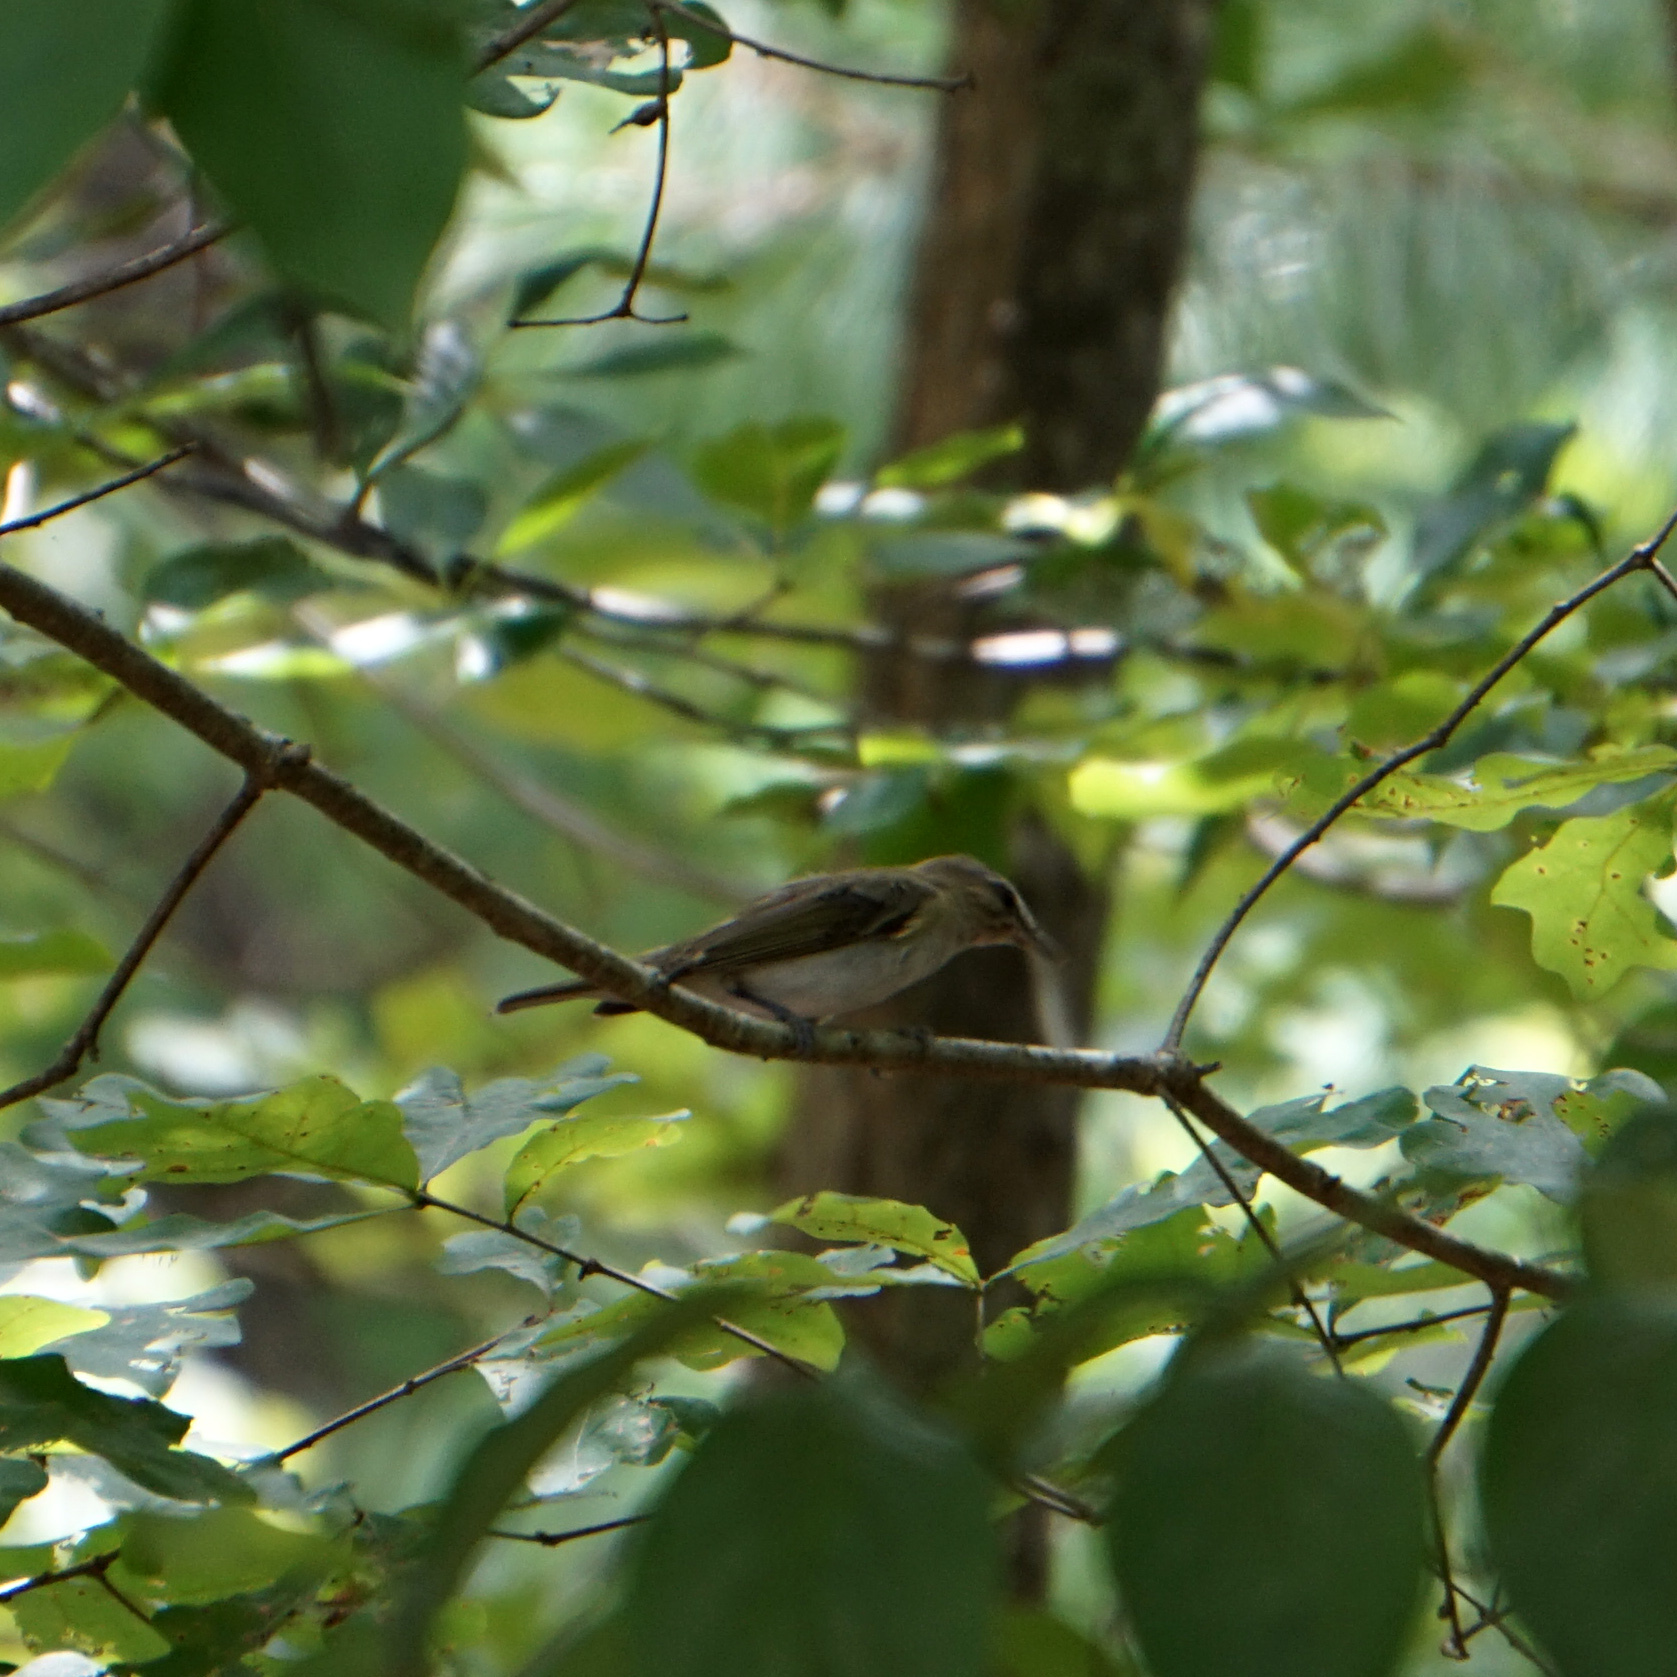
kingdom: Animalia
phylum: Chordata
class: Aves
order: Passeriformes
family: Vireonidae
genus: Vireo
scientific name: Vireo olivaceus
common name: Red-eyed vireo
